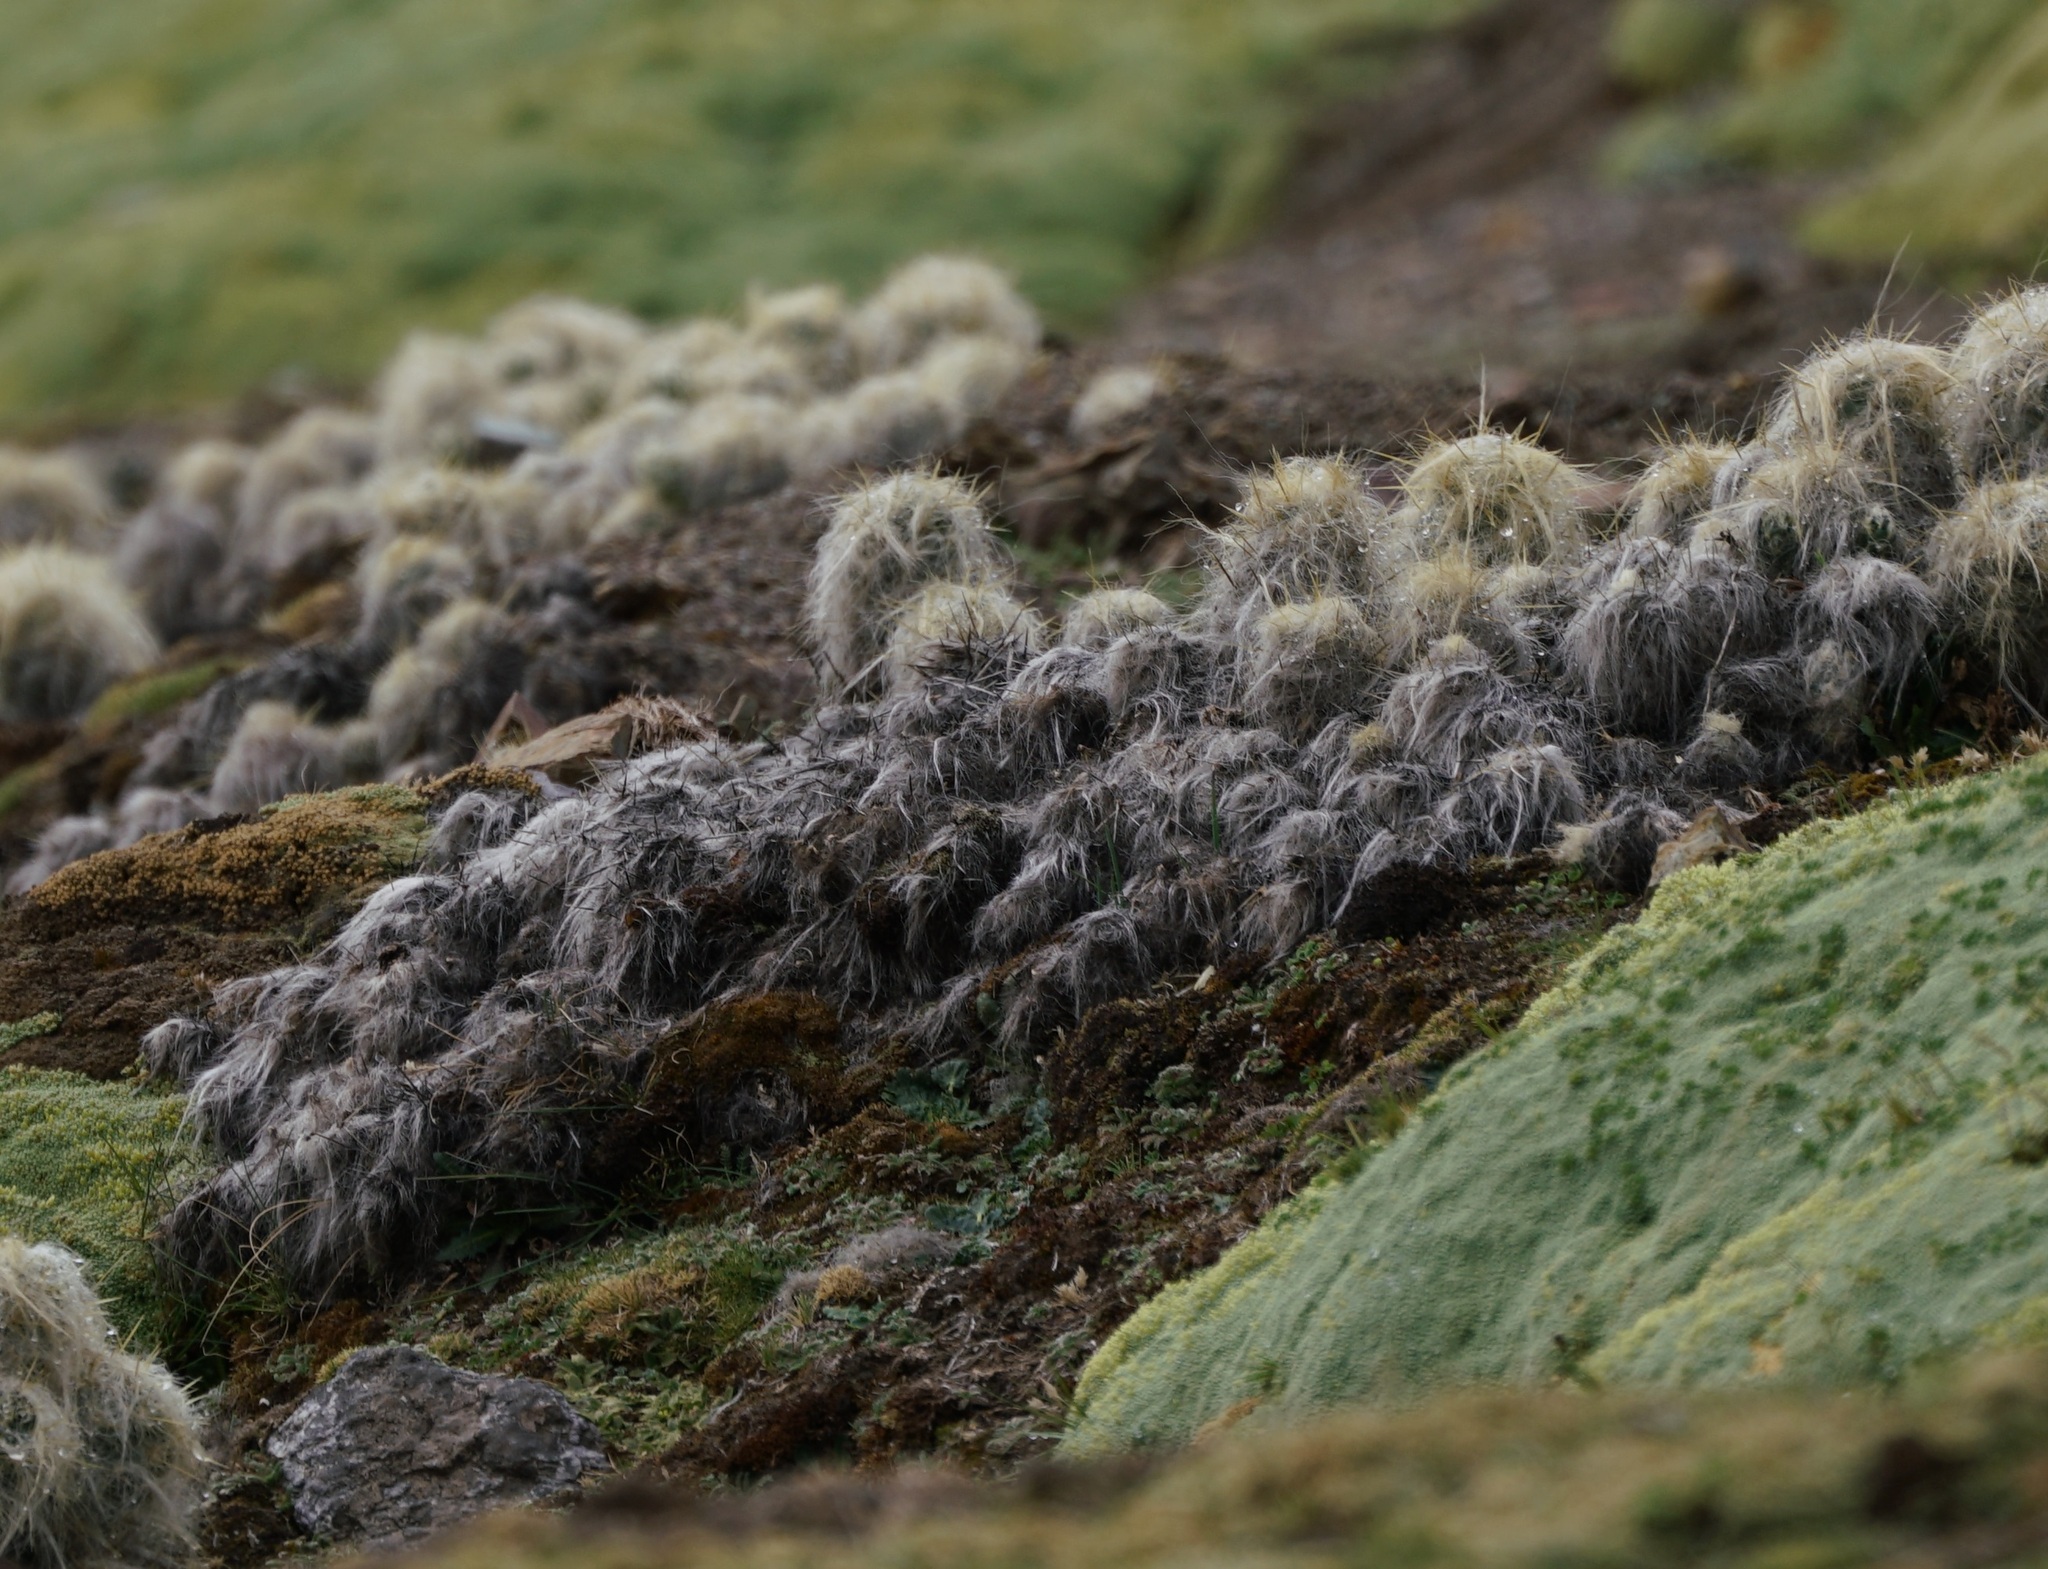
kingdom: Plantae
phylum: Tracheophyta
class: Magnoliopsida
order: Caryophyllales
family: Cactaceae
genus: Austrocylindropuntia
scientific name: Austrocylindropuntia floccosa
